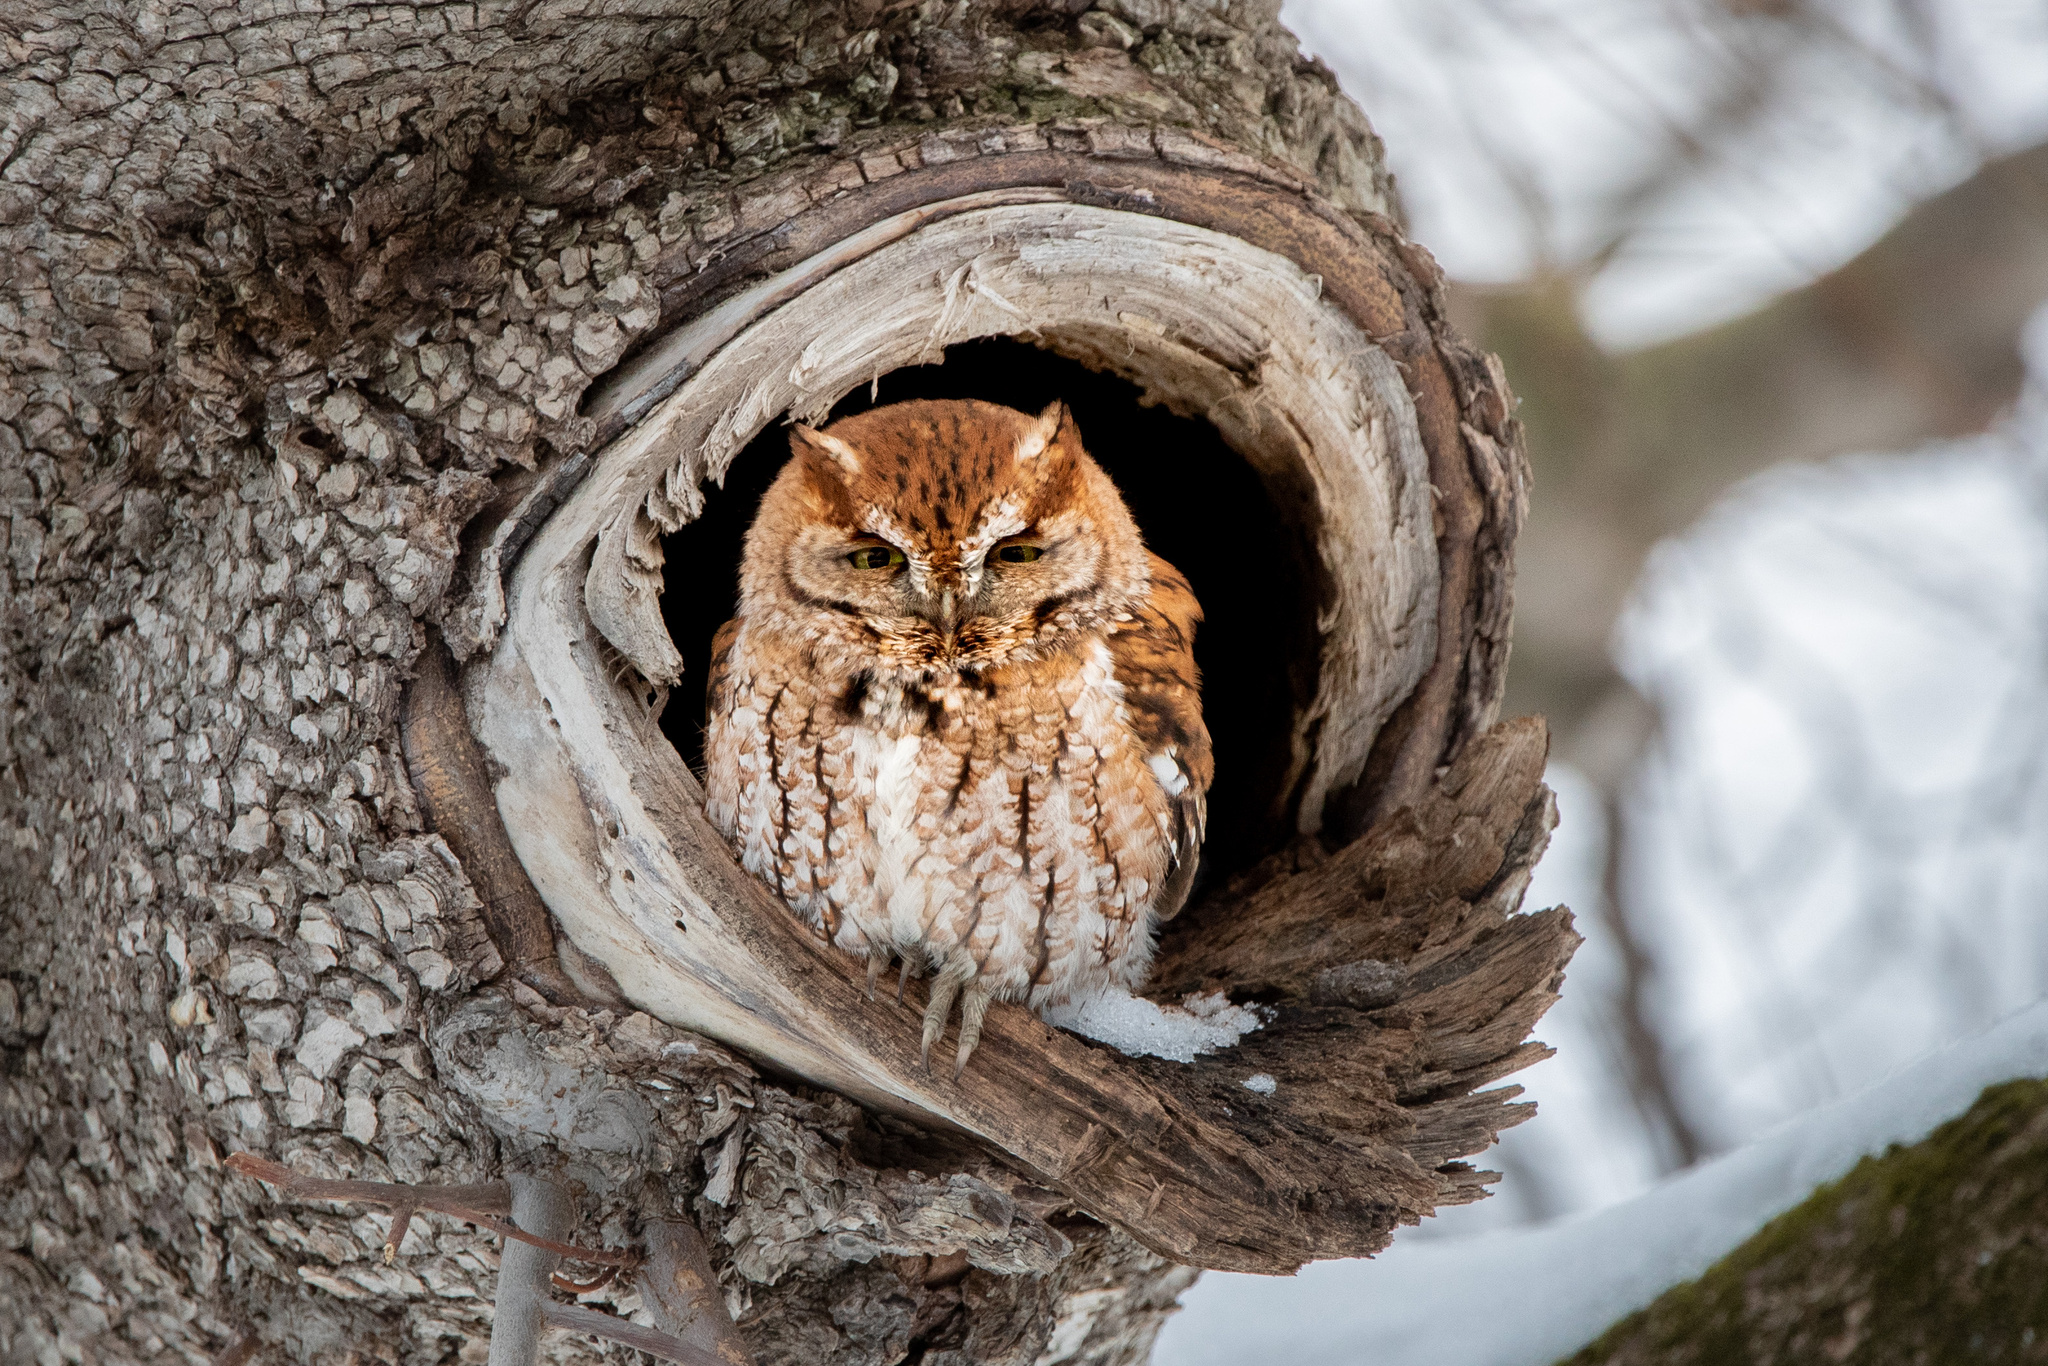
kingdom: Animalia
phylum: Chordata
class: Aves
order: Strigiformes
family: Strigidae
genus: Megascops
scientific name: Megascops asio
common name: Eastern screech-owl
